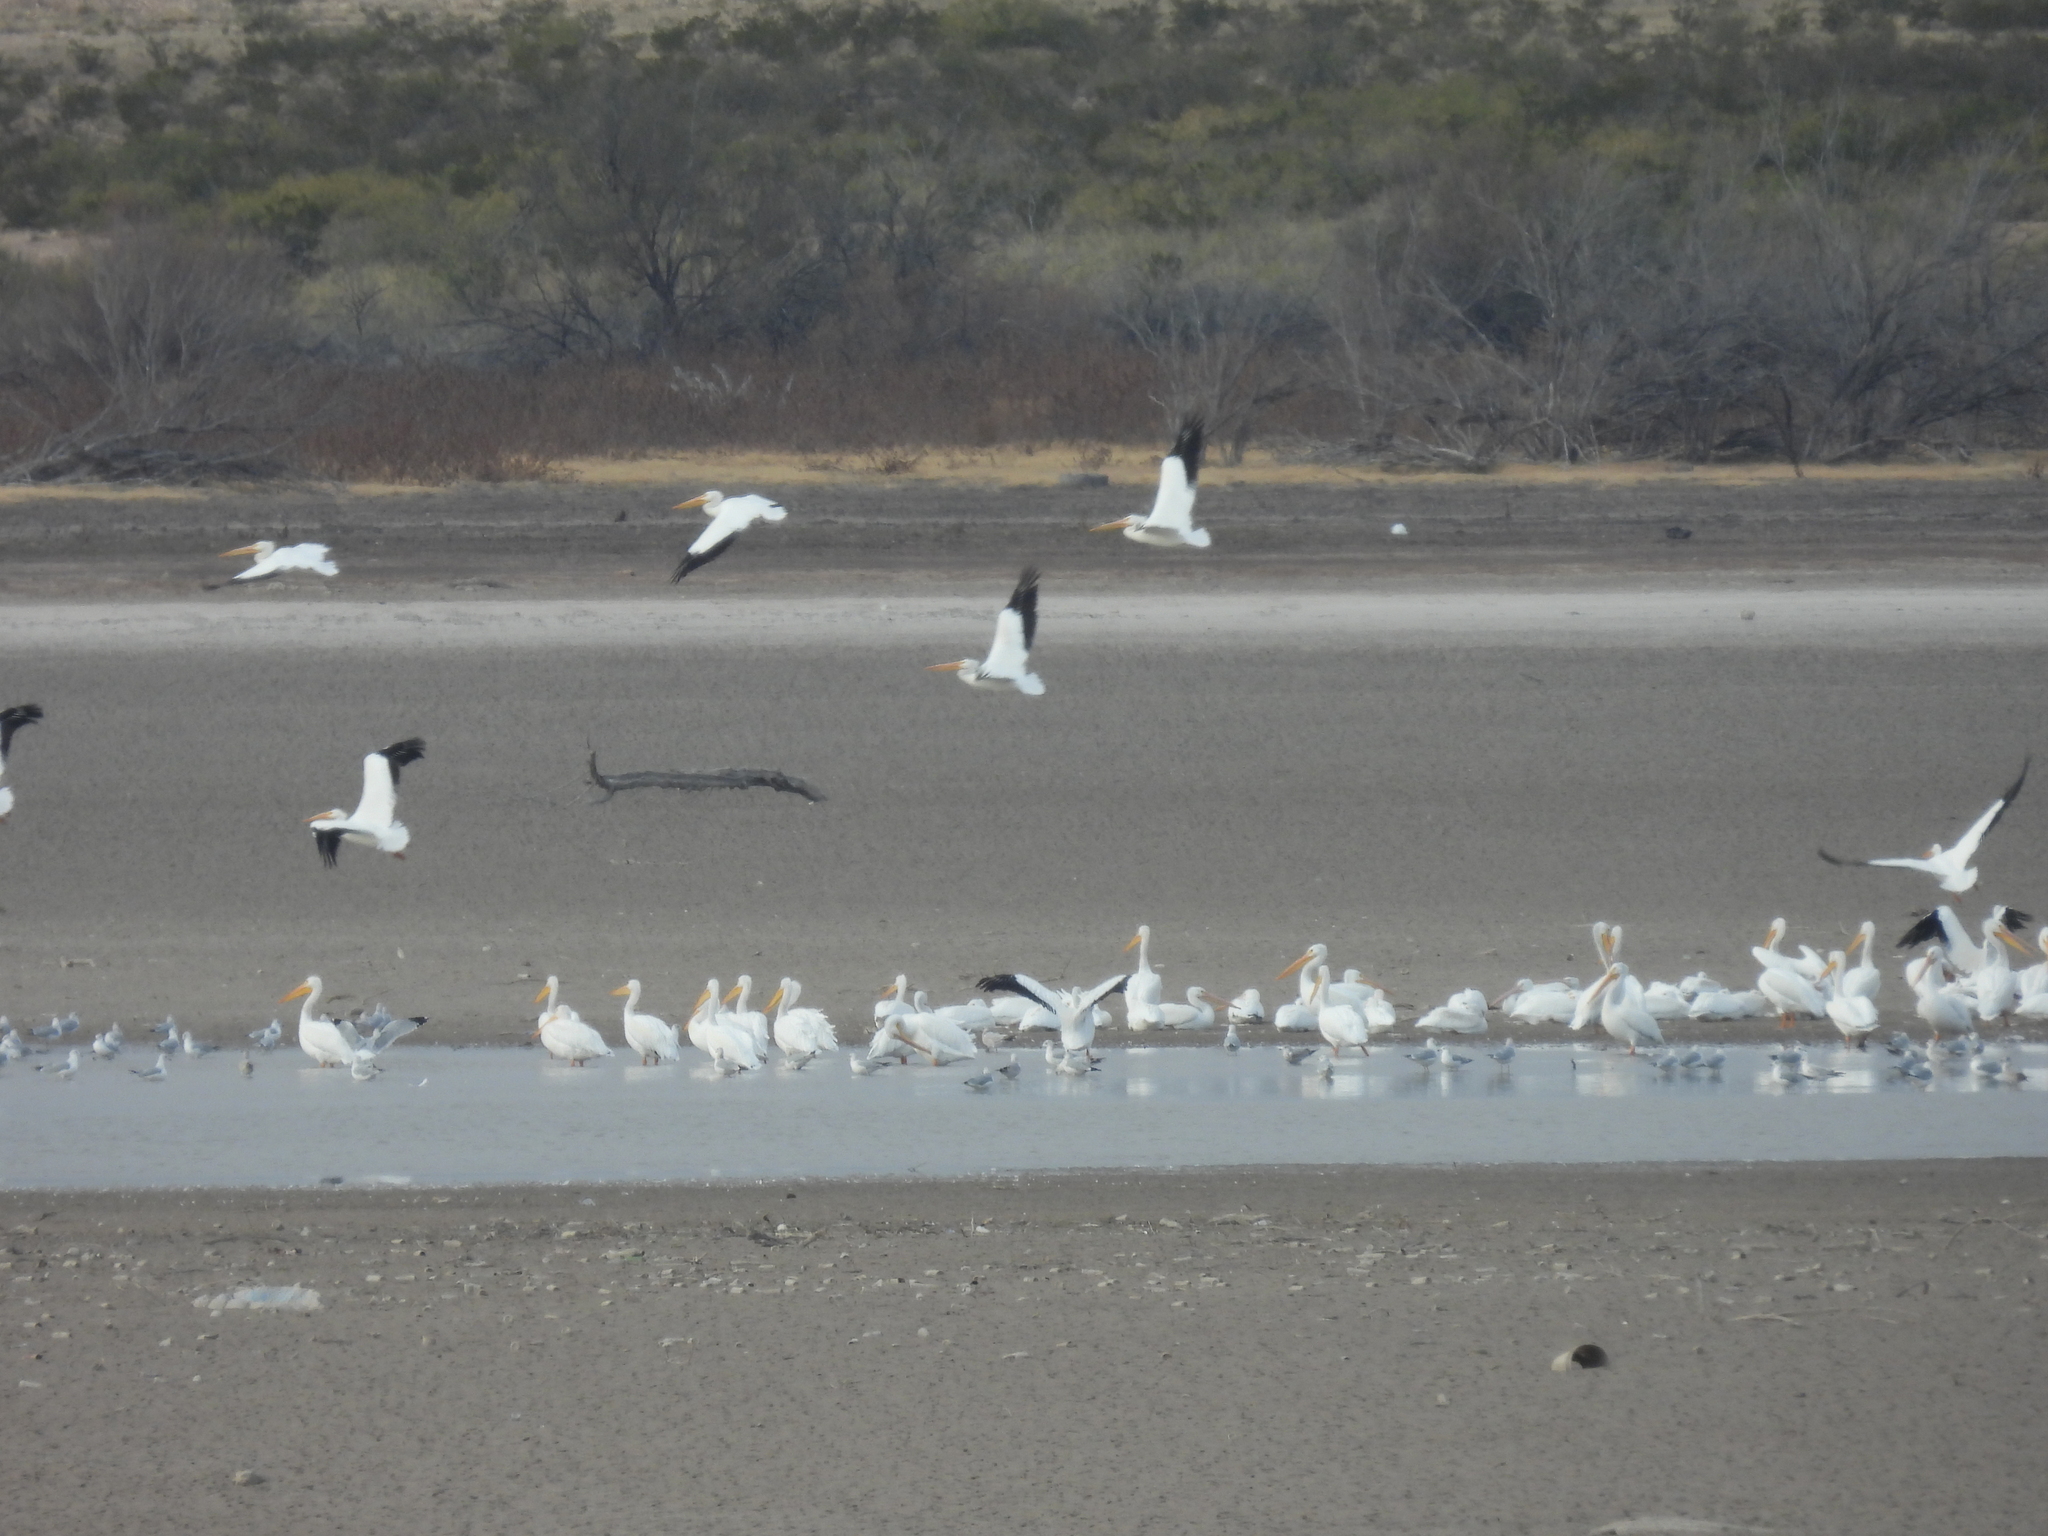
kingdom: Animalia
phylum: Chordata
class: Aves
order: Pelecaniformes
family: Pelecanidae
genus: Pelecanus
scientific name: Pelecanus erythrorhynchos
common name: American white pelican
